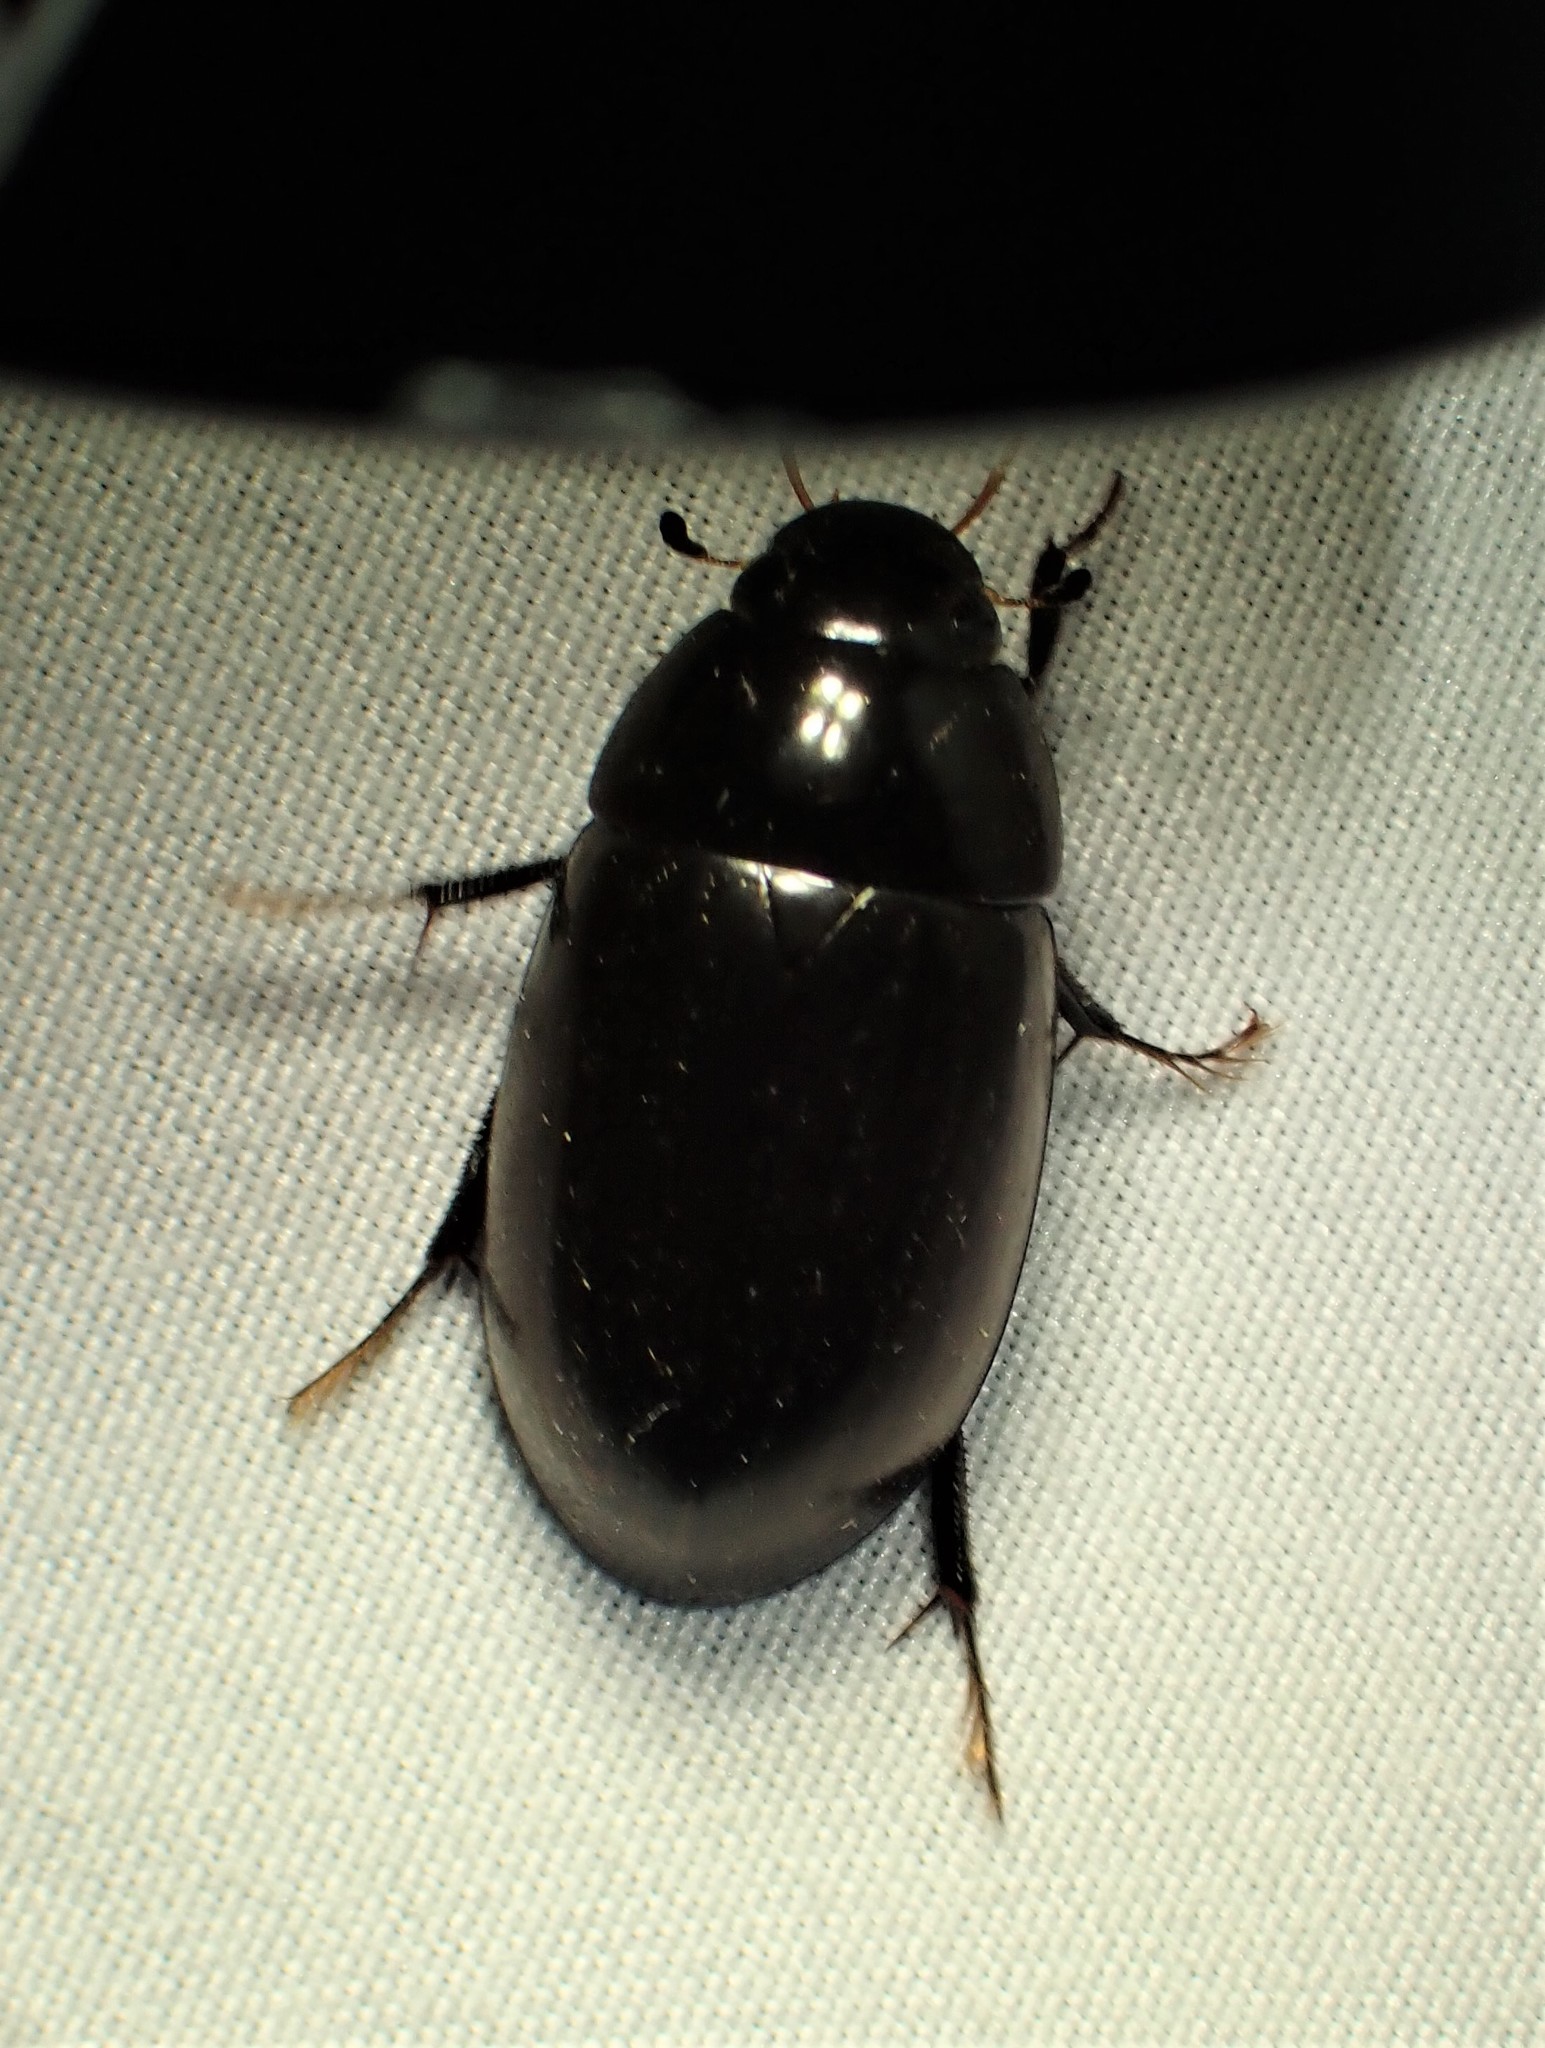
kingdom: Animalia
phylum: Arthropoda
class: Insecta
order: Coleoptera
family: Hydrophilidae
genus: Hydrochara
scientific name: Hydrochara
